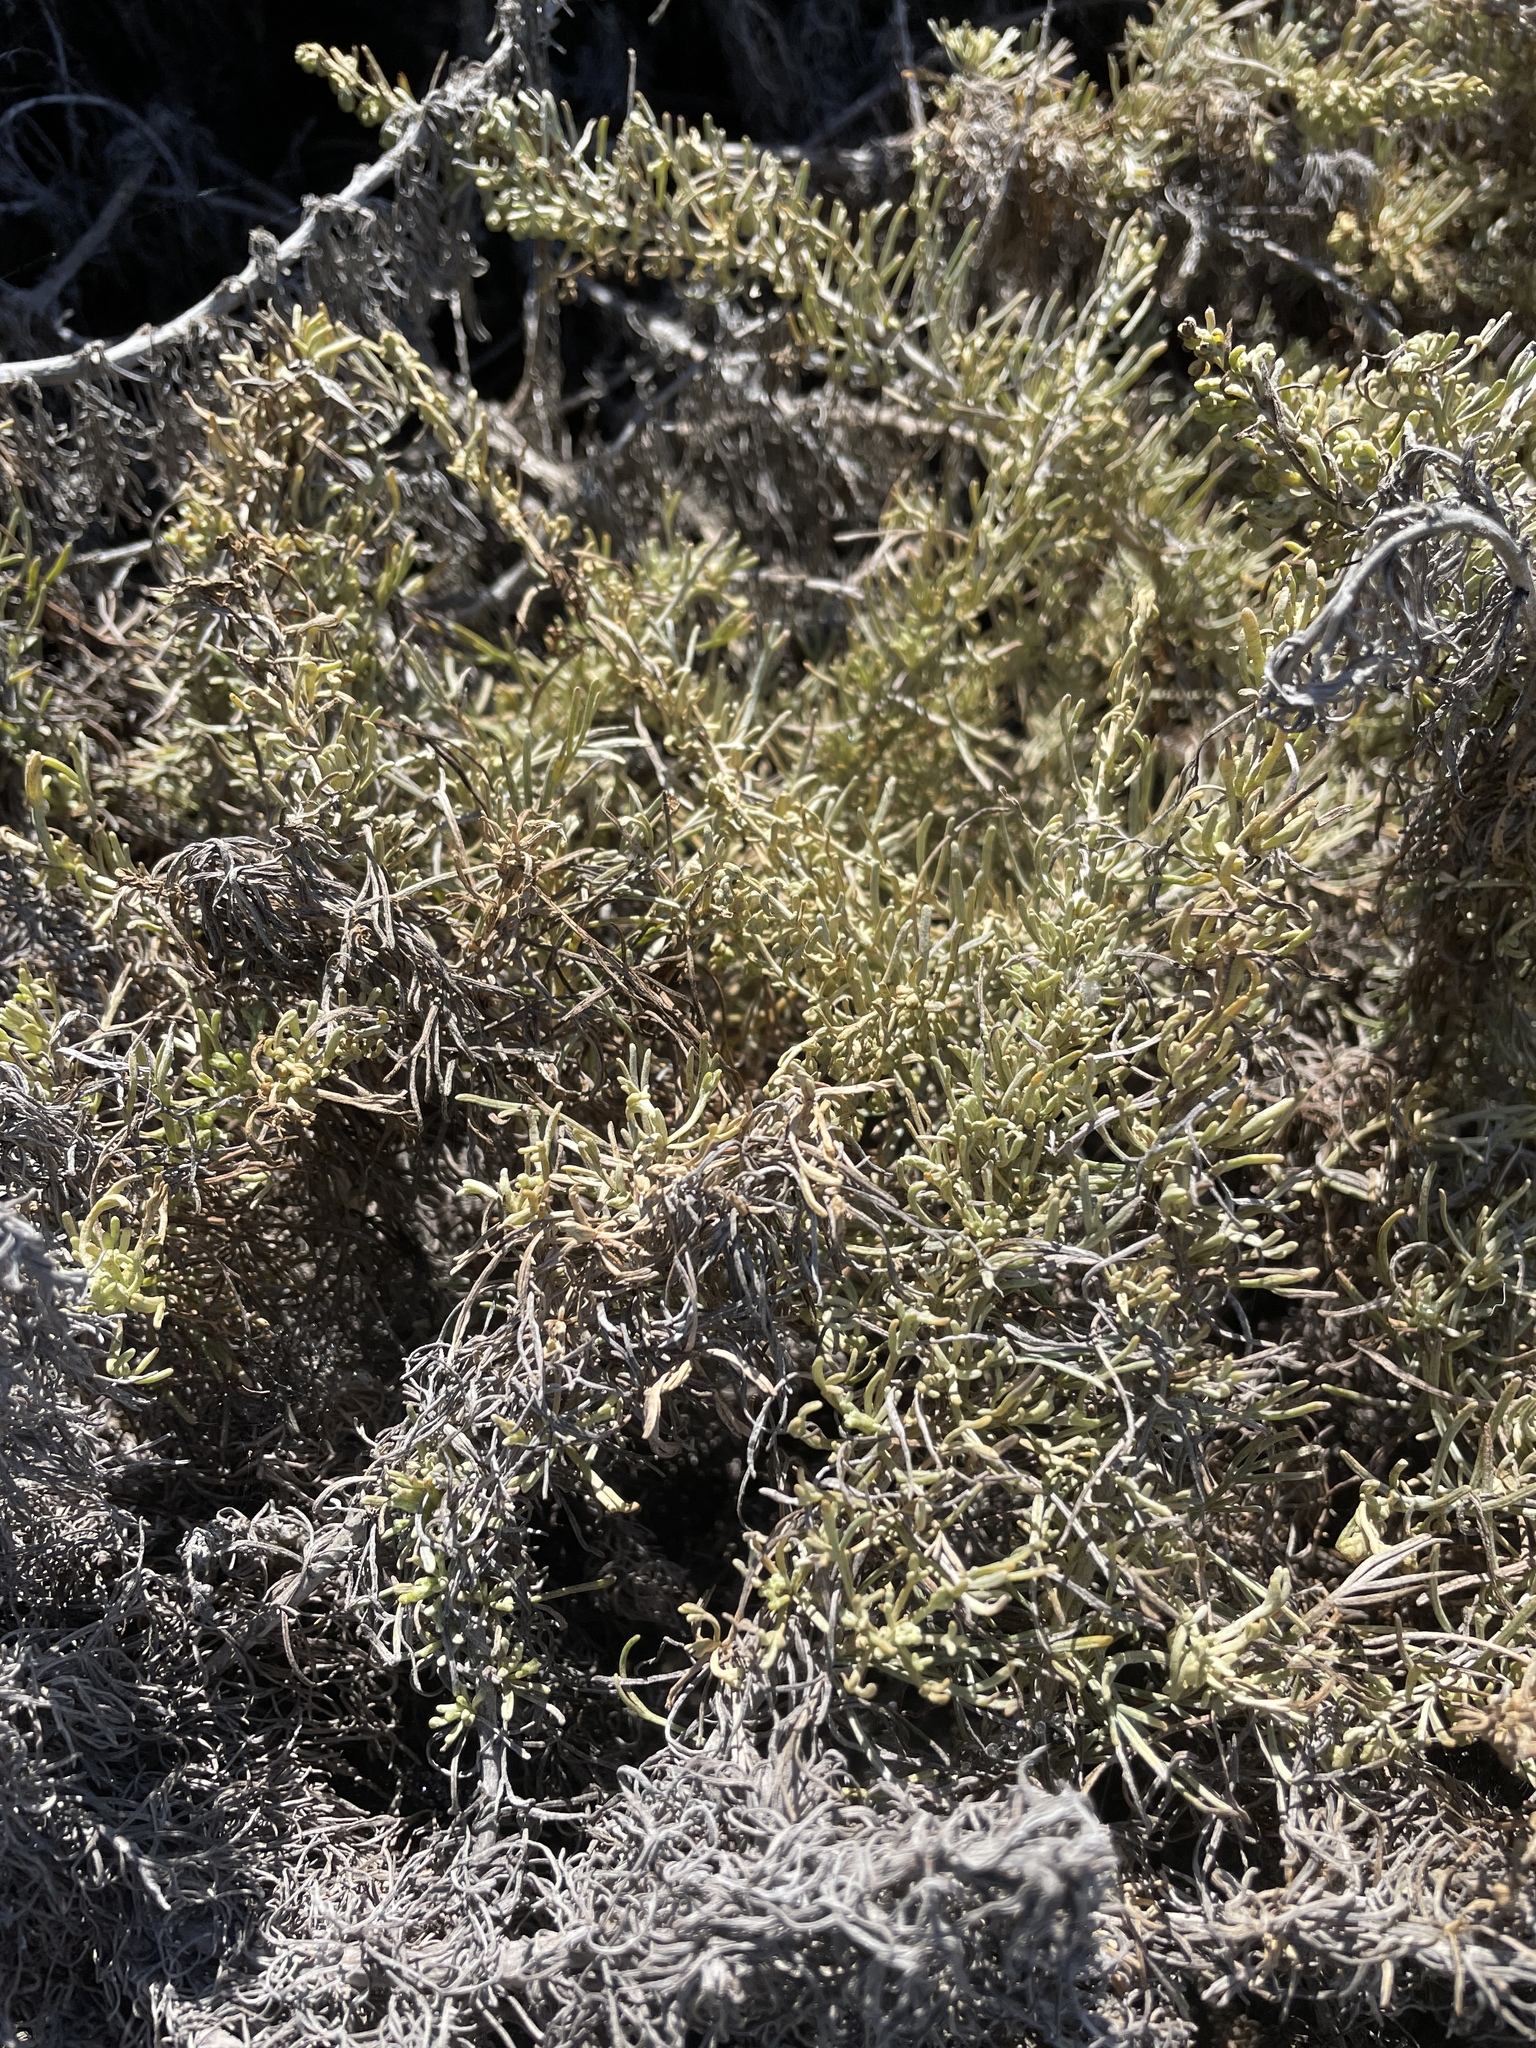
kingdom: Plantae
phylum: Tracheophyta
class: Magnoliopsida
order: Asterales
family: Asteraceae
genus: Artemisia
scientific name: Artemisia californica
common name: California sagebrush
